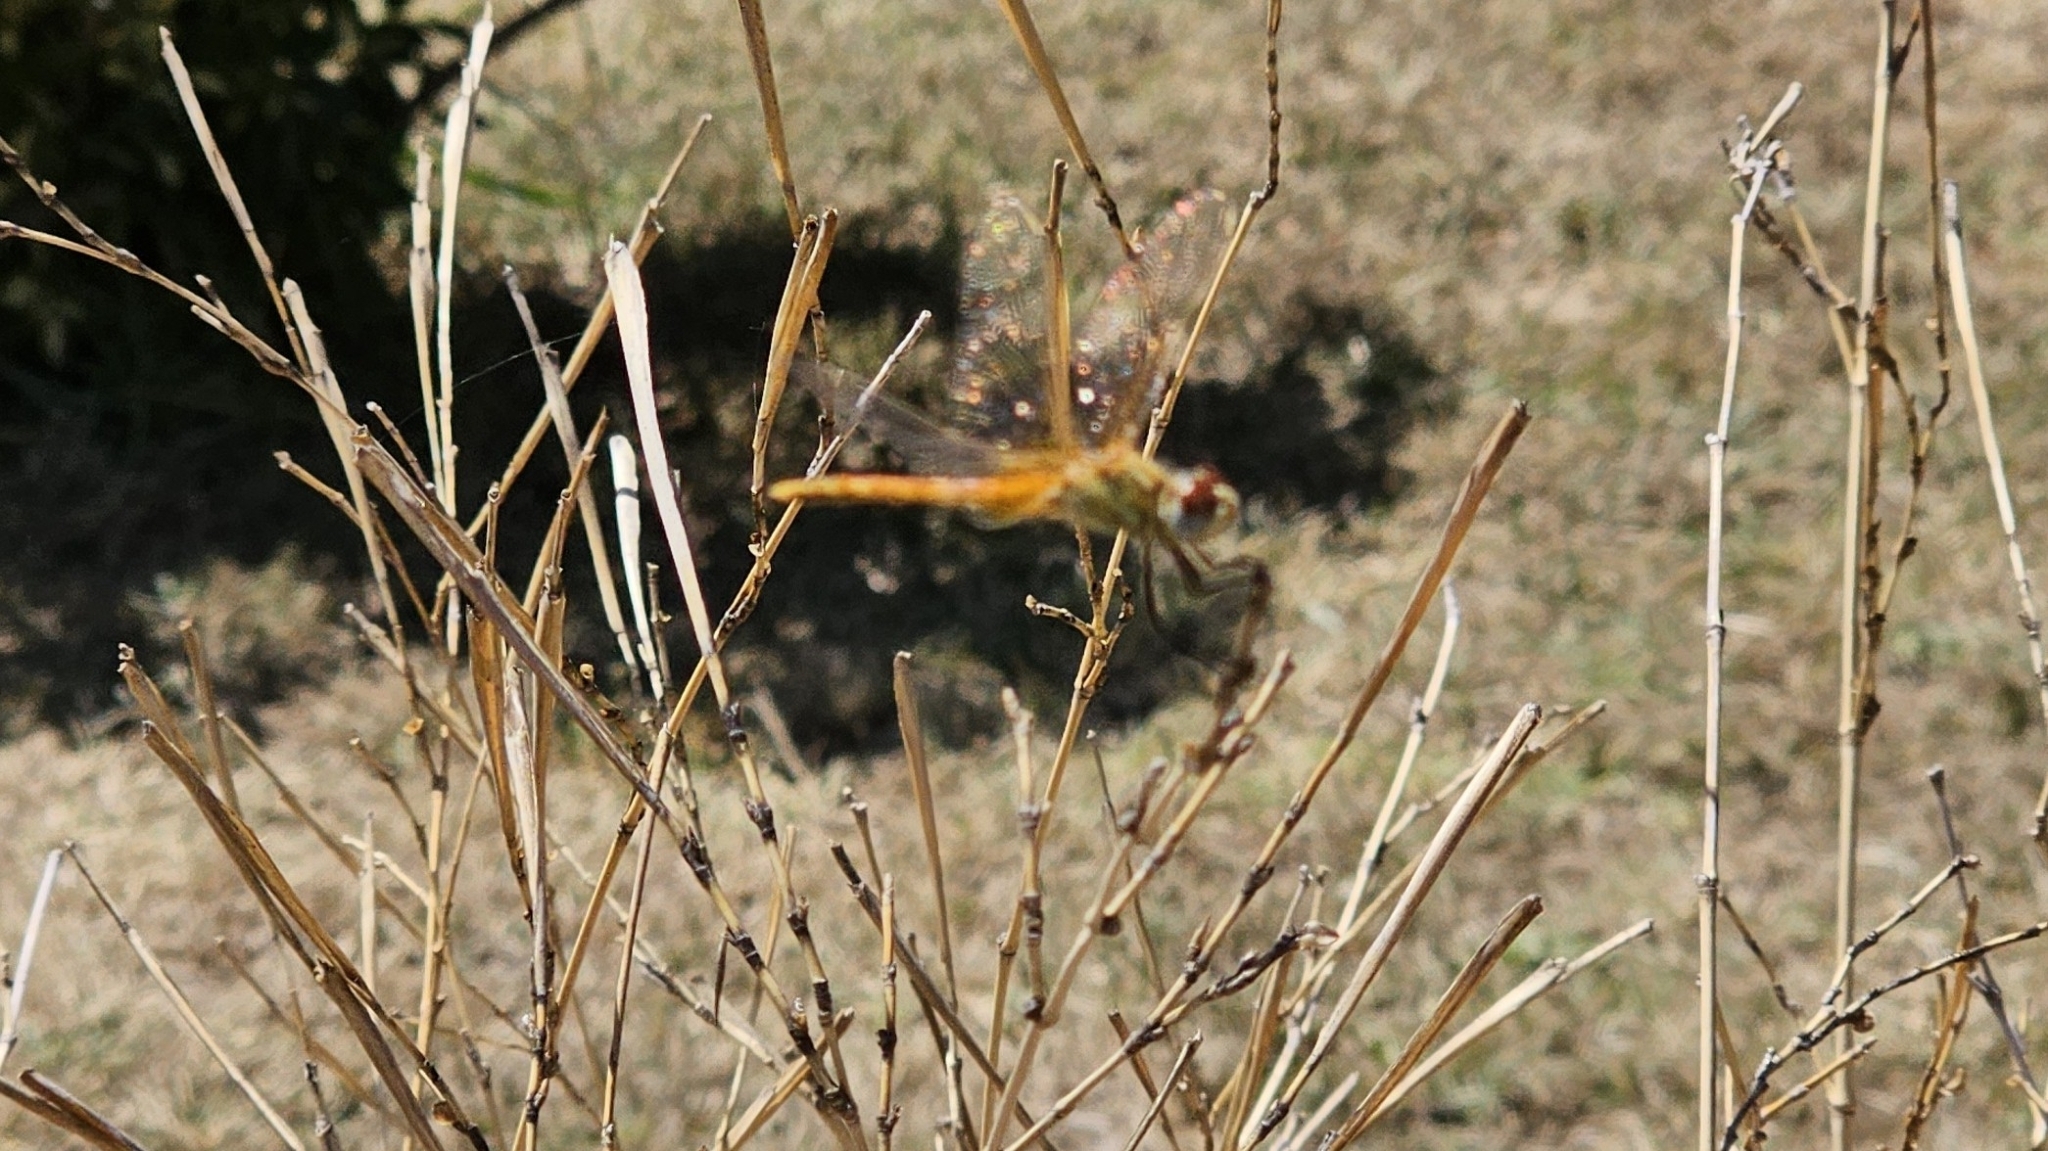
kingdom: Animalia
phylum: Arthropoda
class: Insecta
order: Odonata
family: Libellulidae
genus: Sympetrum
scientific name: Sympetrum fonscolombii
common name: Red-veined darter
